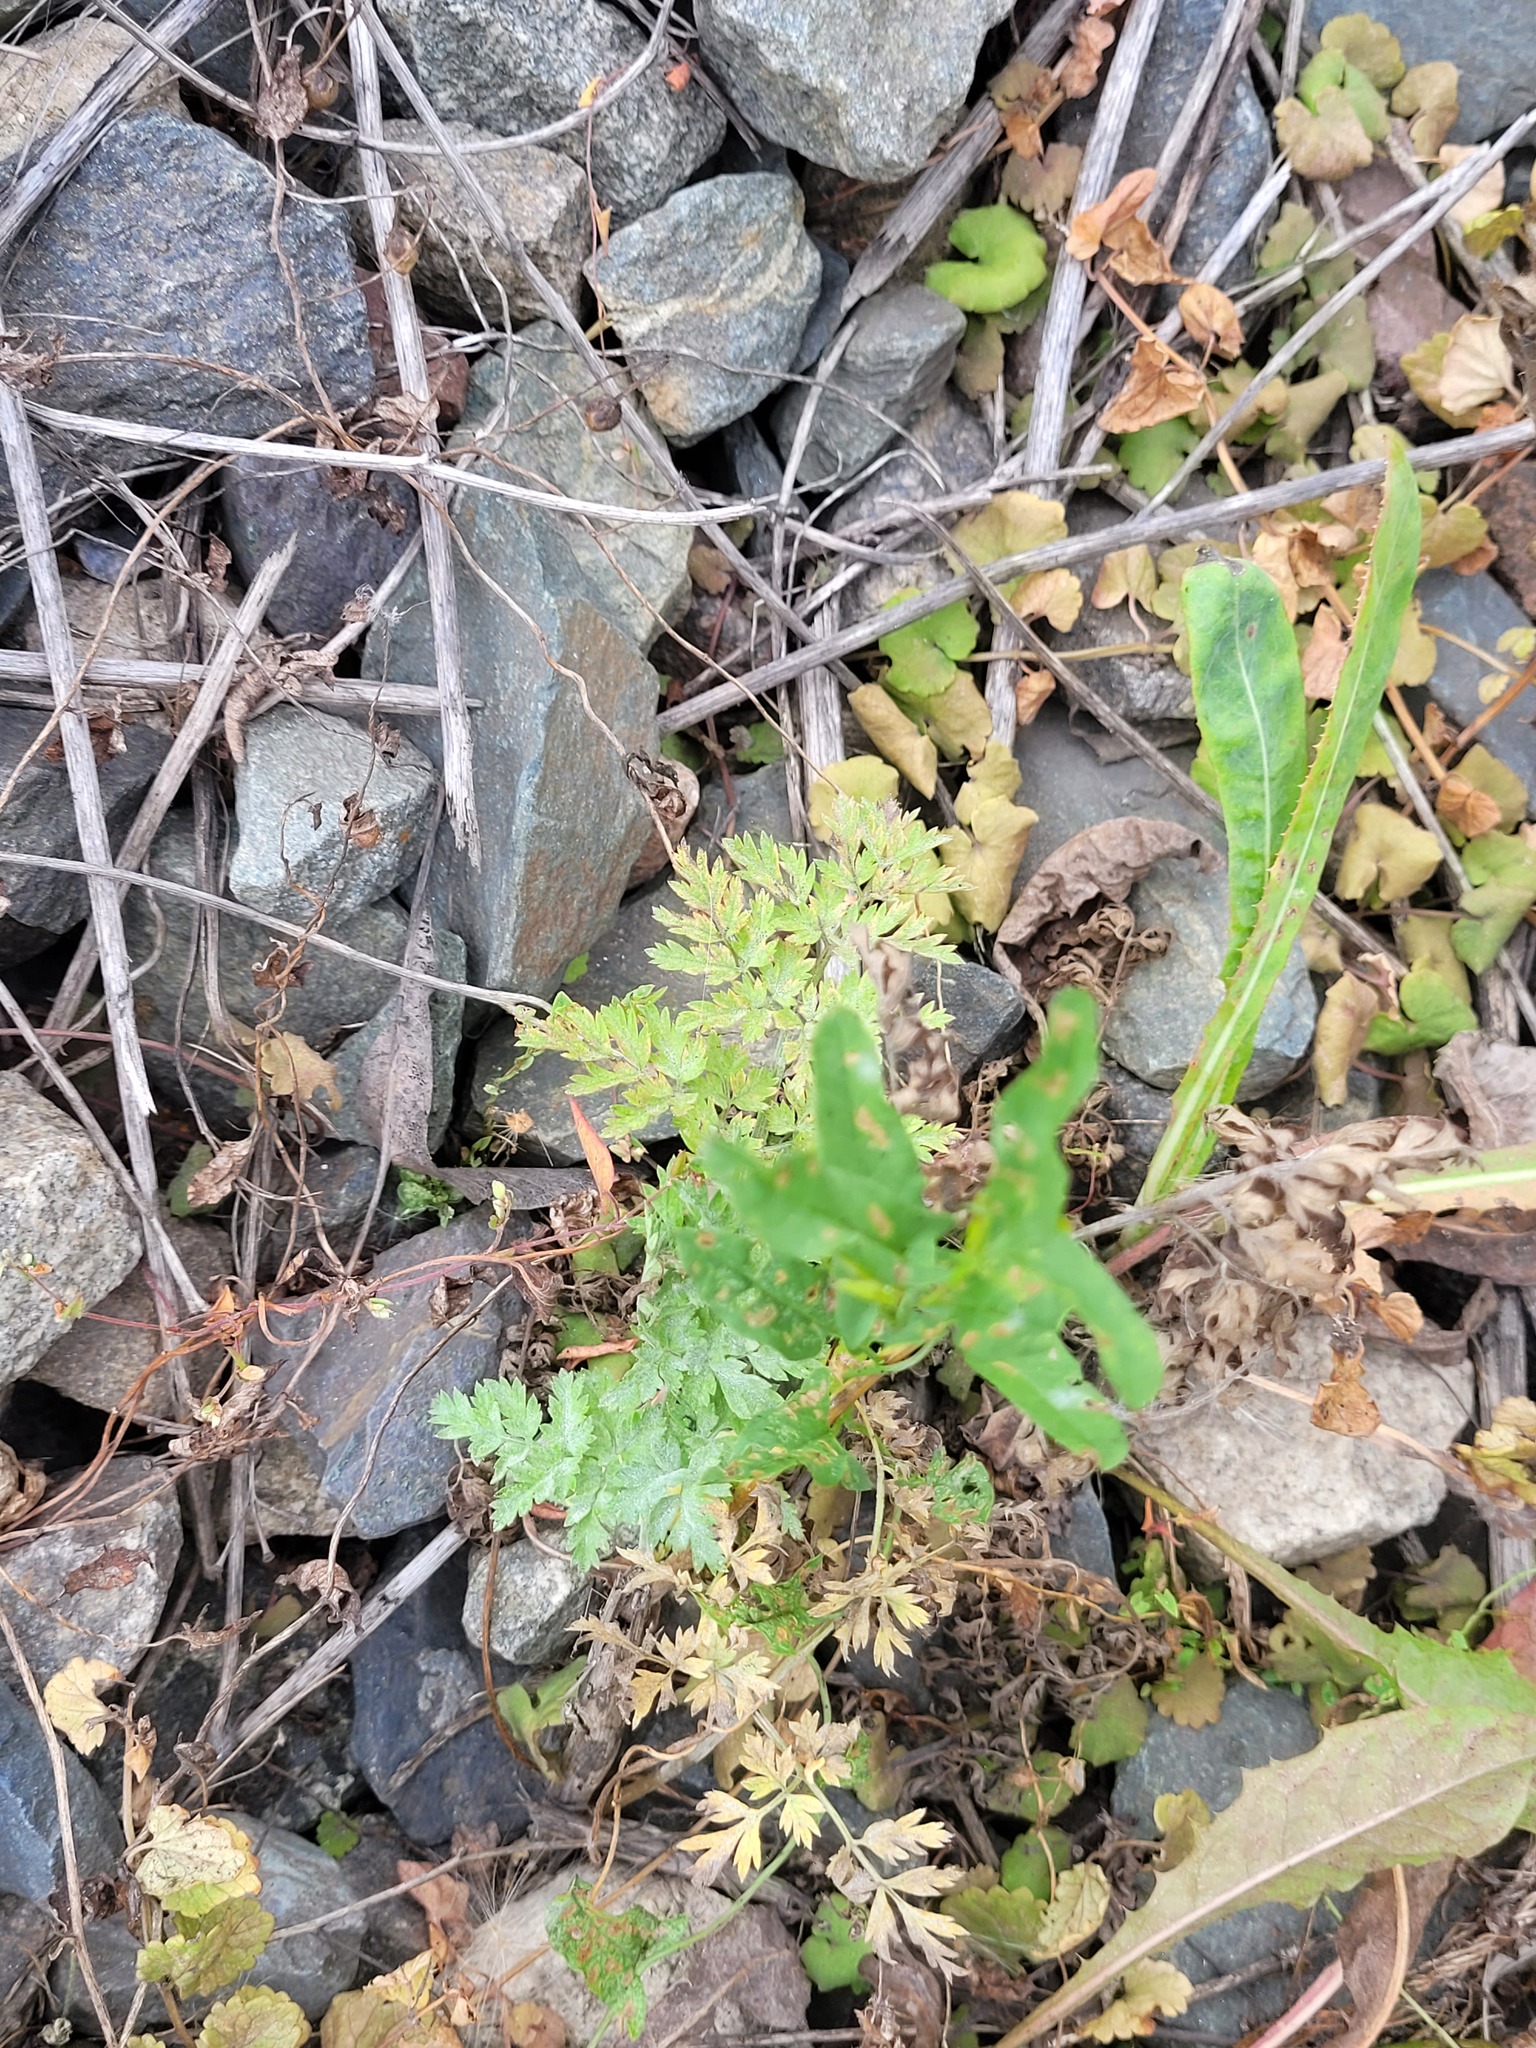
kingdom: Plantae
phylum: Tracheophyta
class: Magnoliopsida
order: Apiales
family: Apiaceae
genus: Anthriscus
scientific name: Anthriscus sylvestris
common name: Cow parsley
